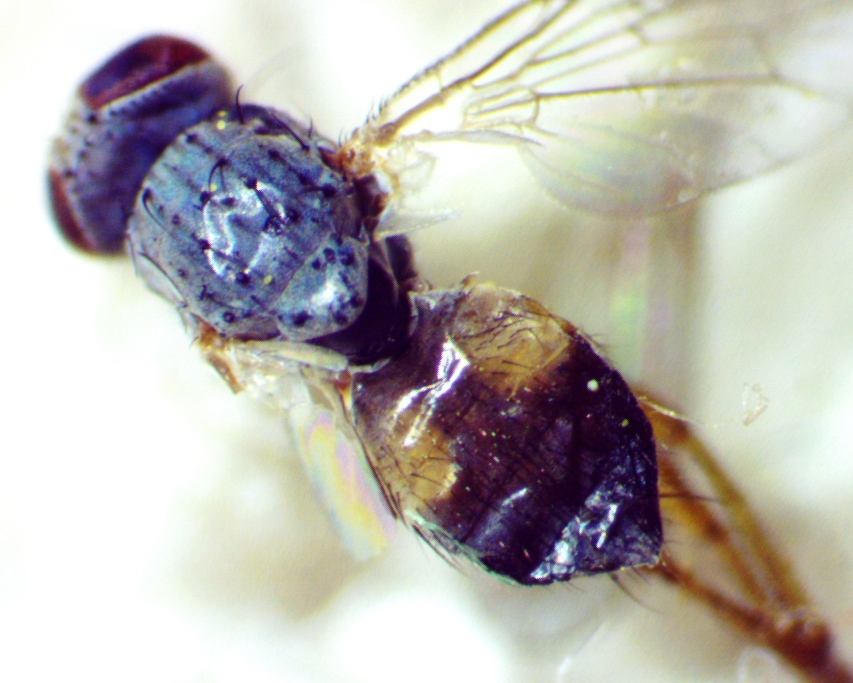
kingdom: Animalia
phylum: Arthropoda
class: Insecta
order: Diptera
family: Muscidae
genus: Neodexiopsis
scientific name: Neodexiopsis calopyga
